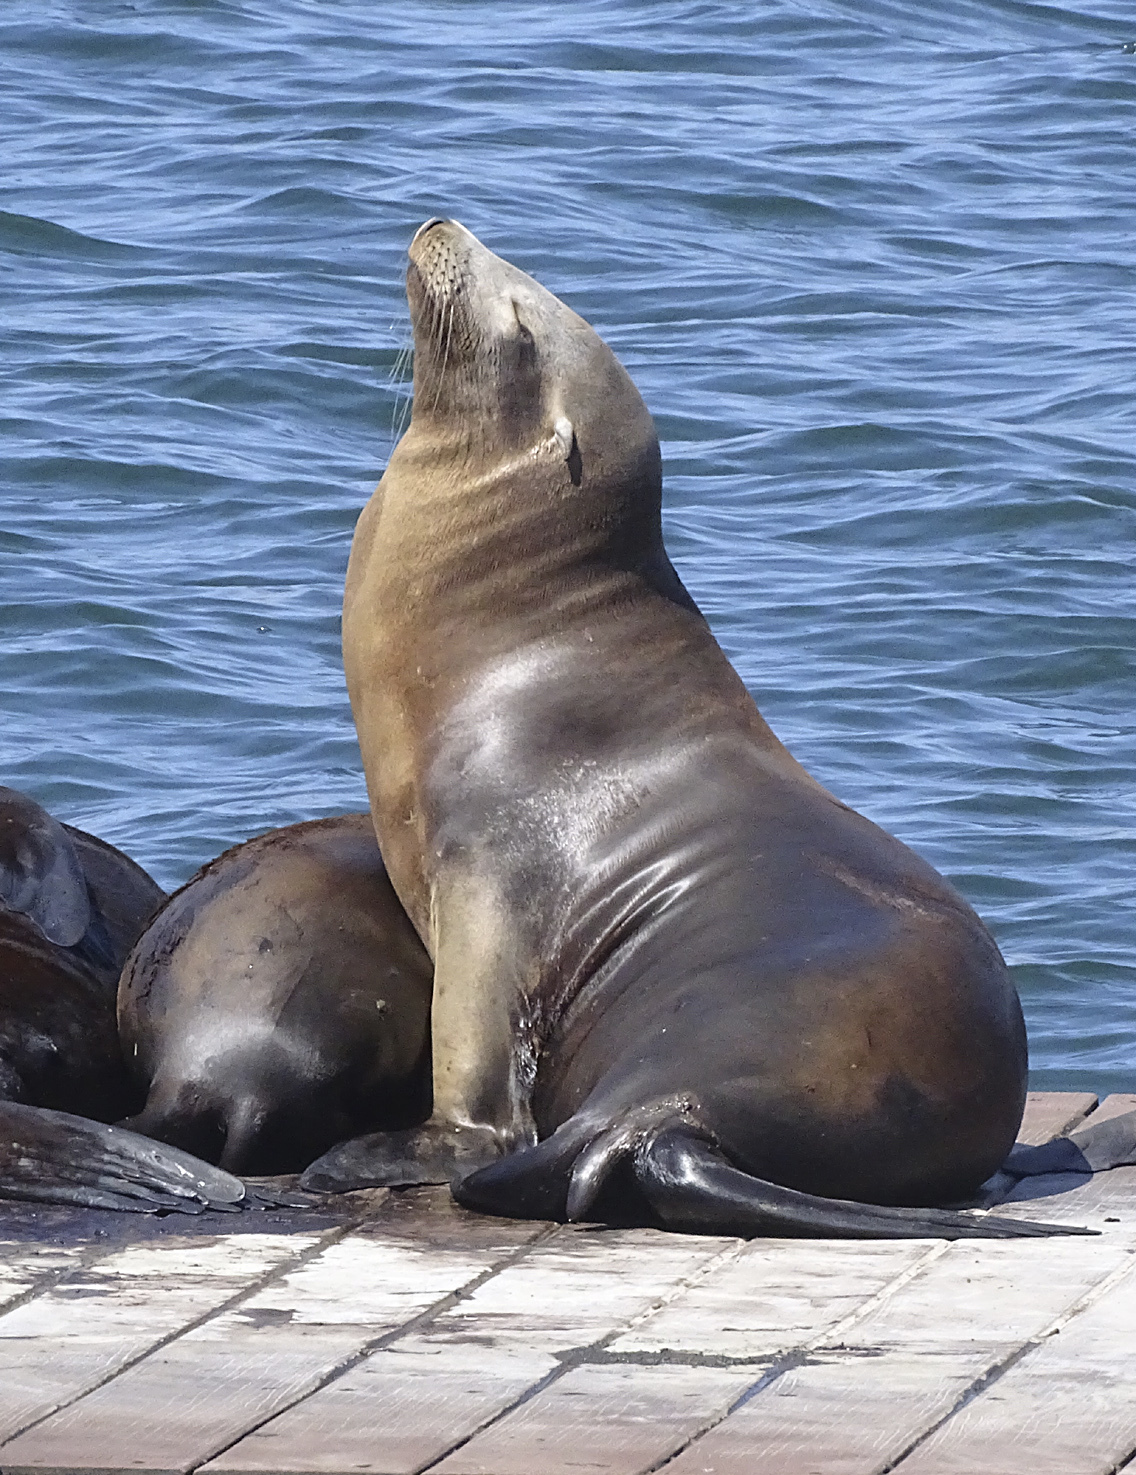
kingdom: Animalia
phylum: Chordata
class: Mammalia
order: Carnivora
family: Otariidae
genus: Zalophus
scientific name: Zalophus californianus
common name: California sea lion
